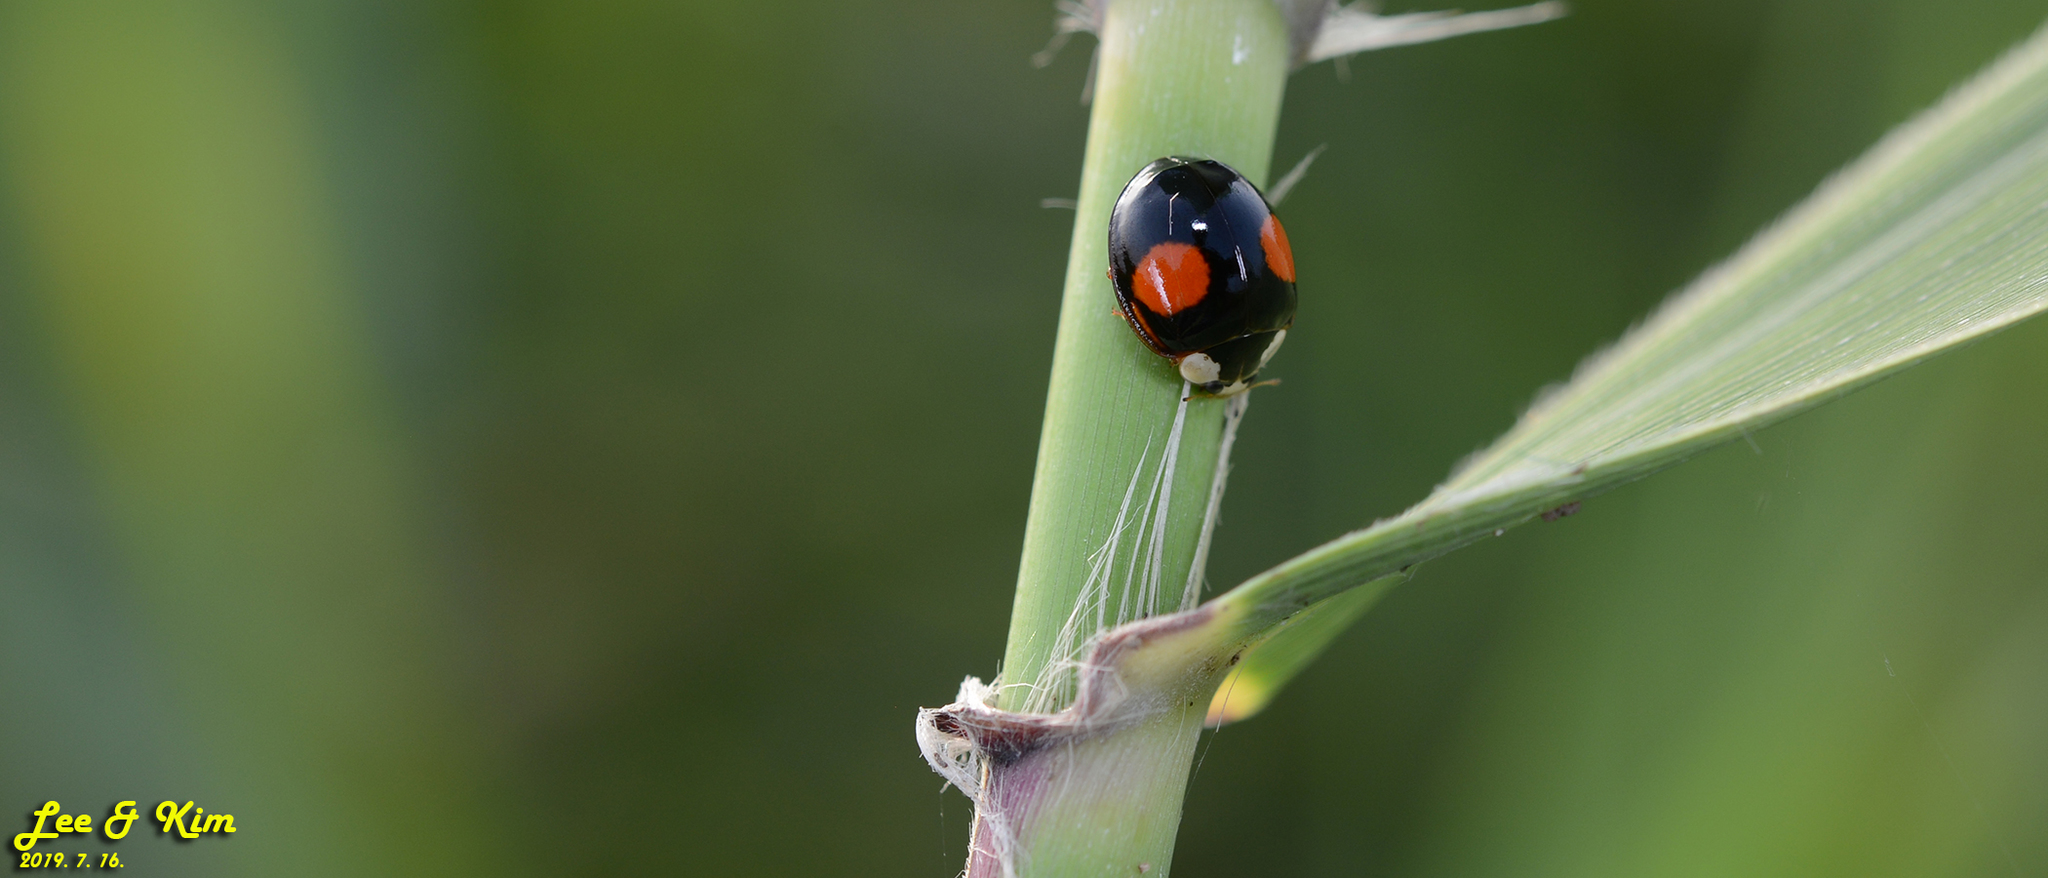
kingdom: Animalia
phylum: Arthropoda
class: Insecta
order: Coleoptera
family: Coccinellidae
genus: Harmonia
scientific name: Harmonia axyridis
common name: Harlequin ladybird
